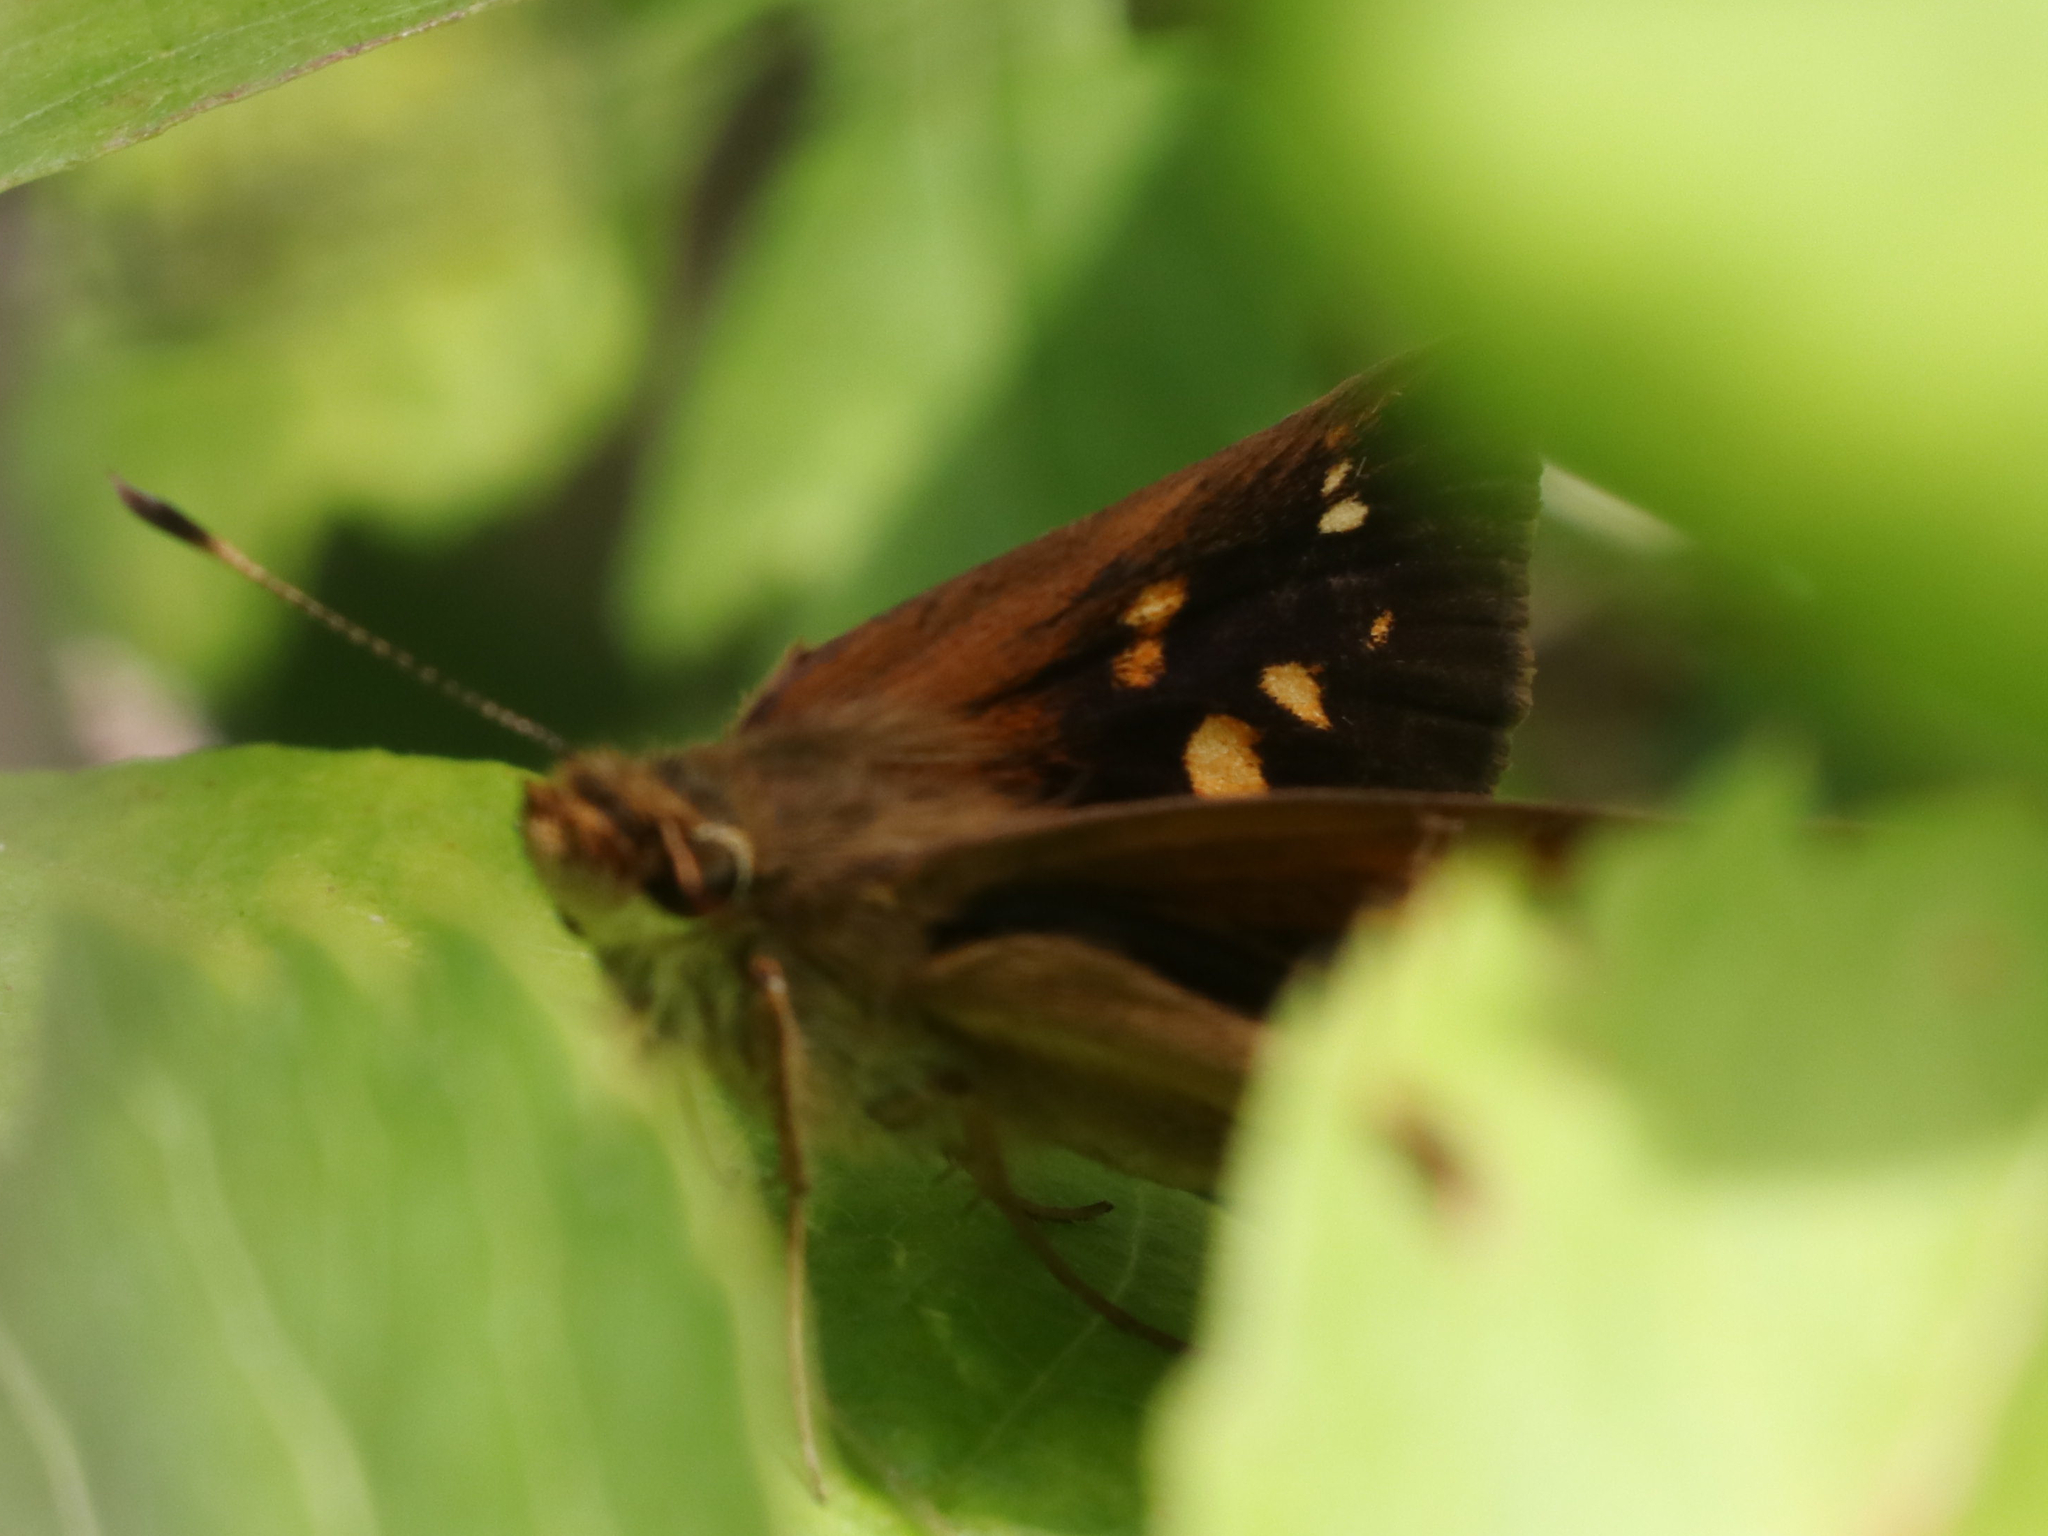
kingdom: Animalia
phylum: Arthropoda
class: Insecta
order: Lepidoptera
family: Hesperiidae
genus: Poanes
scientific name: Poanes viator
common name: Broad-winged skipper
